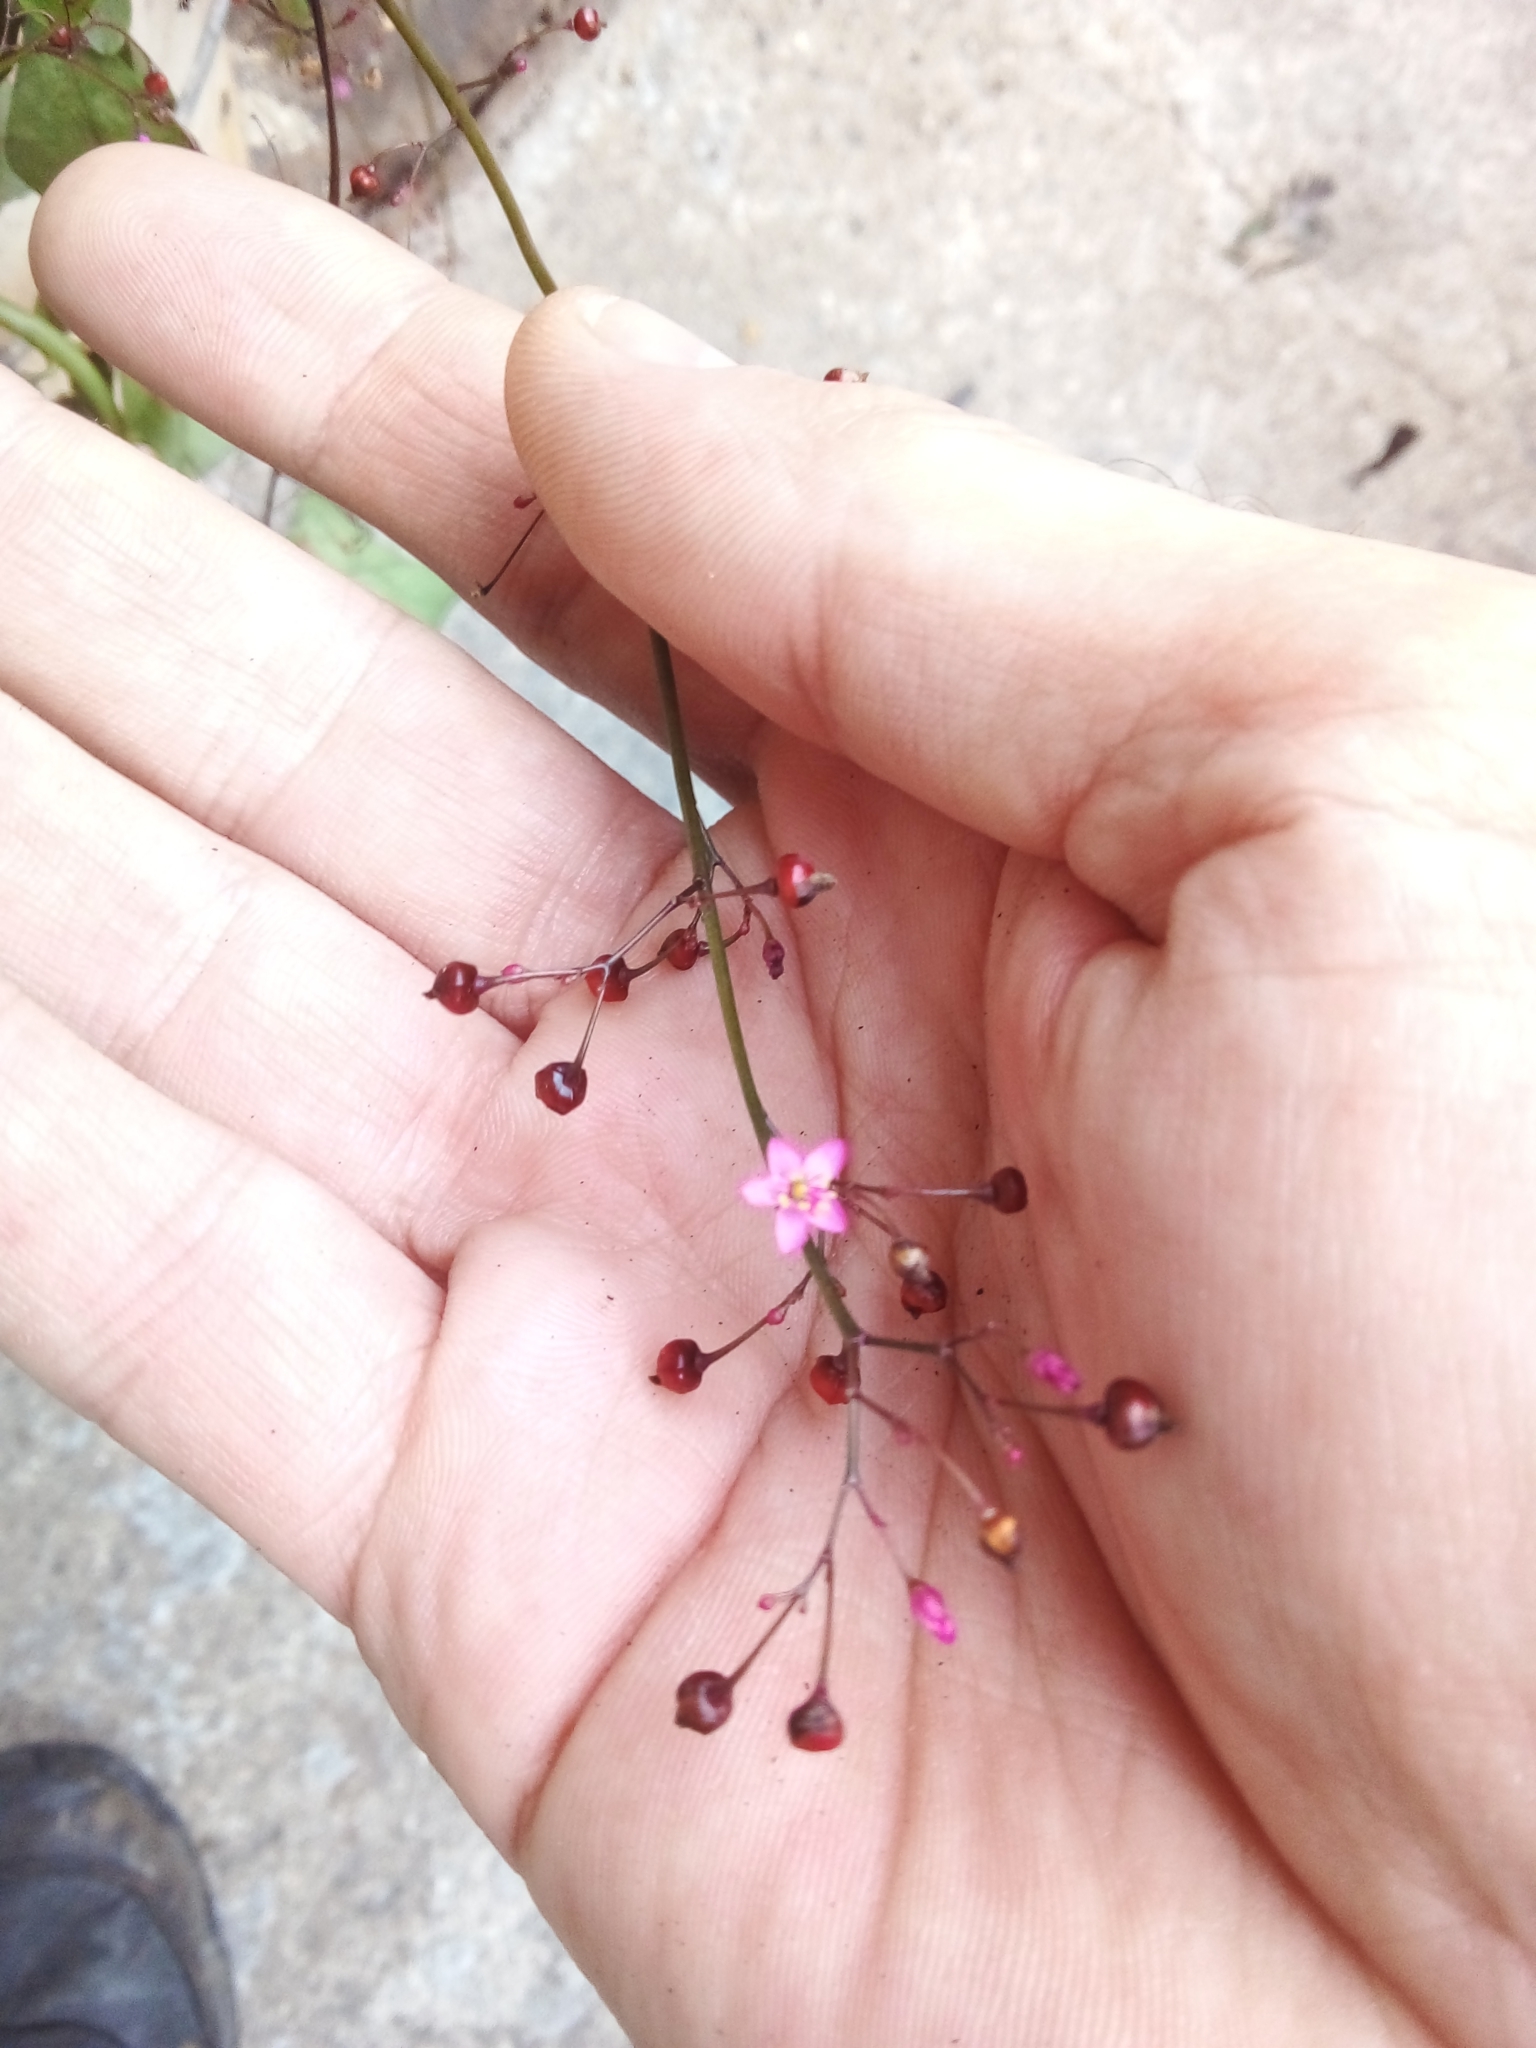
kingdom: Plantae
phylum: Tracheophyta
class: Magnoliopsida
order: Caryophyllales
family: Talinaceae
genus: Talinum
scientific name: Talinum paniculatum
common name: Jewels of opar
